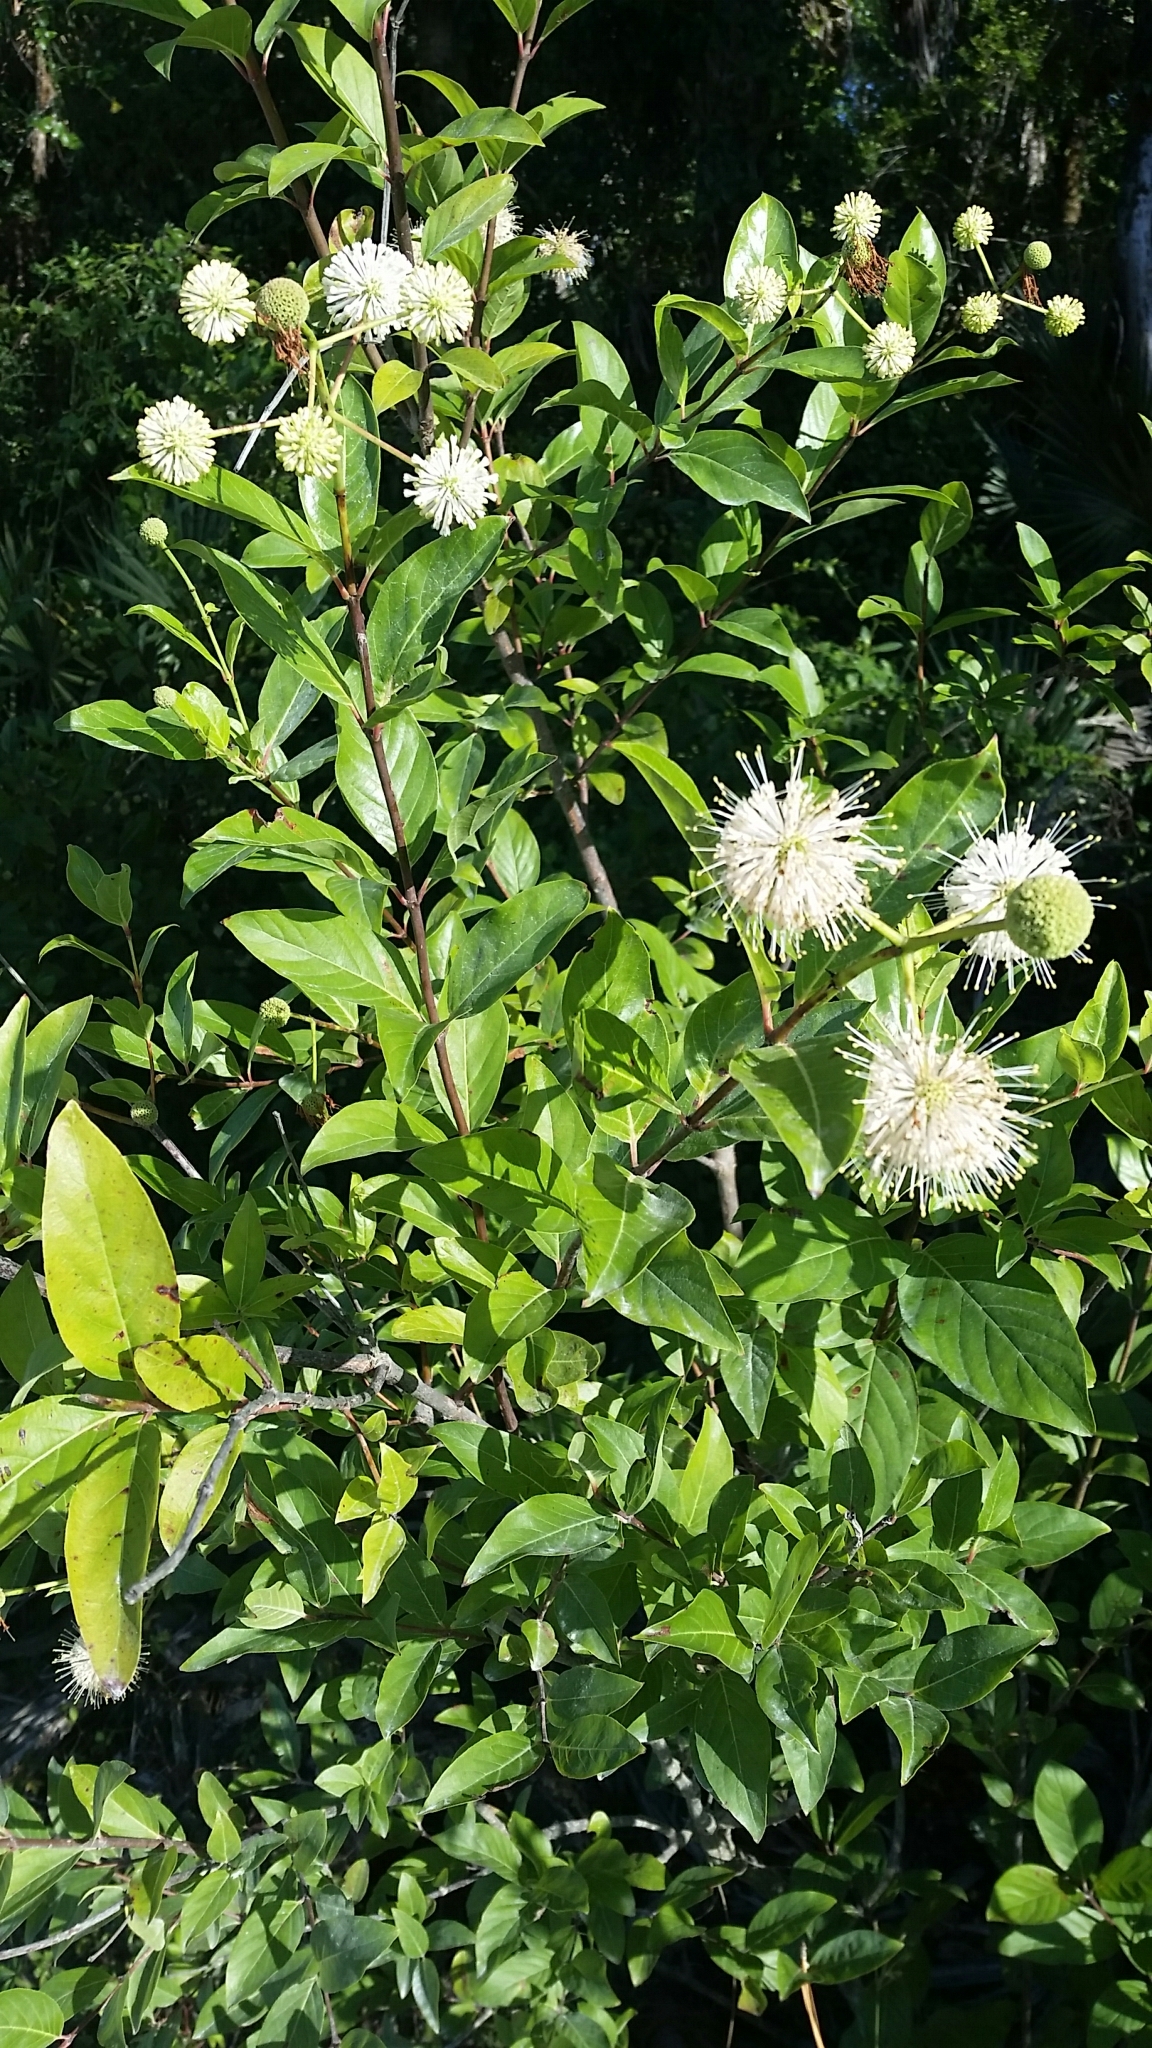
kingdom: Plantae
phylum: Tracheophyta
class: Magnoliopsida
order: Gentianales
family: Rubiaceae
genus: Cephalanthus
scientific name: Cephalanthus occidentalis
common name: Button-willow
